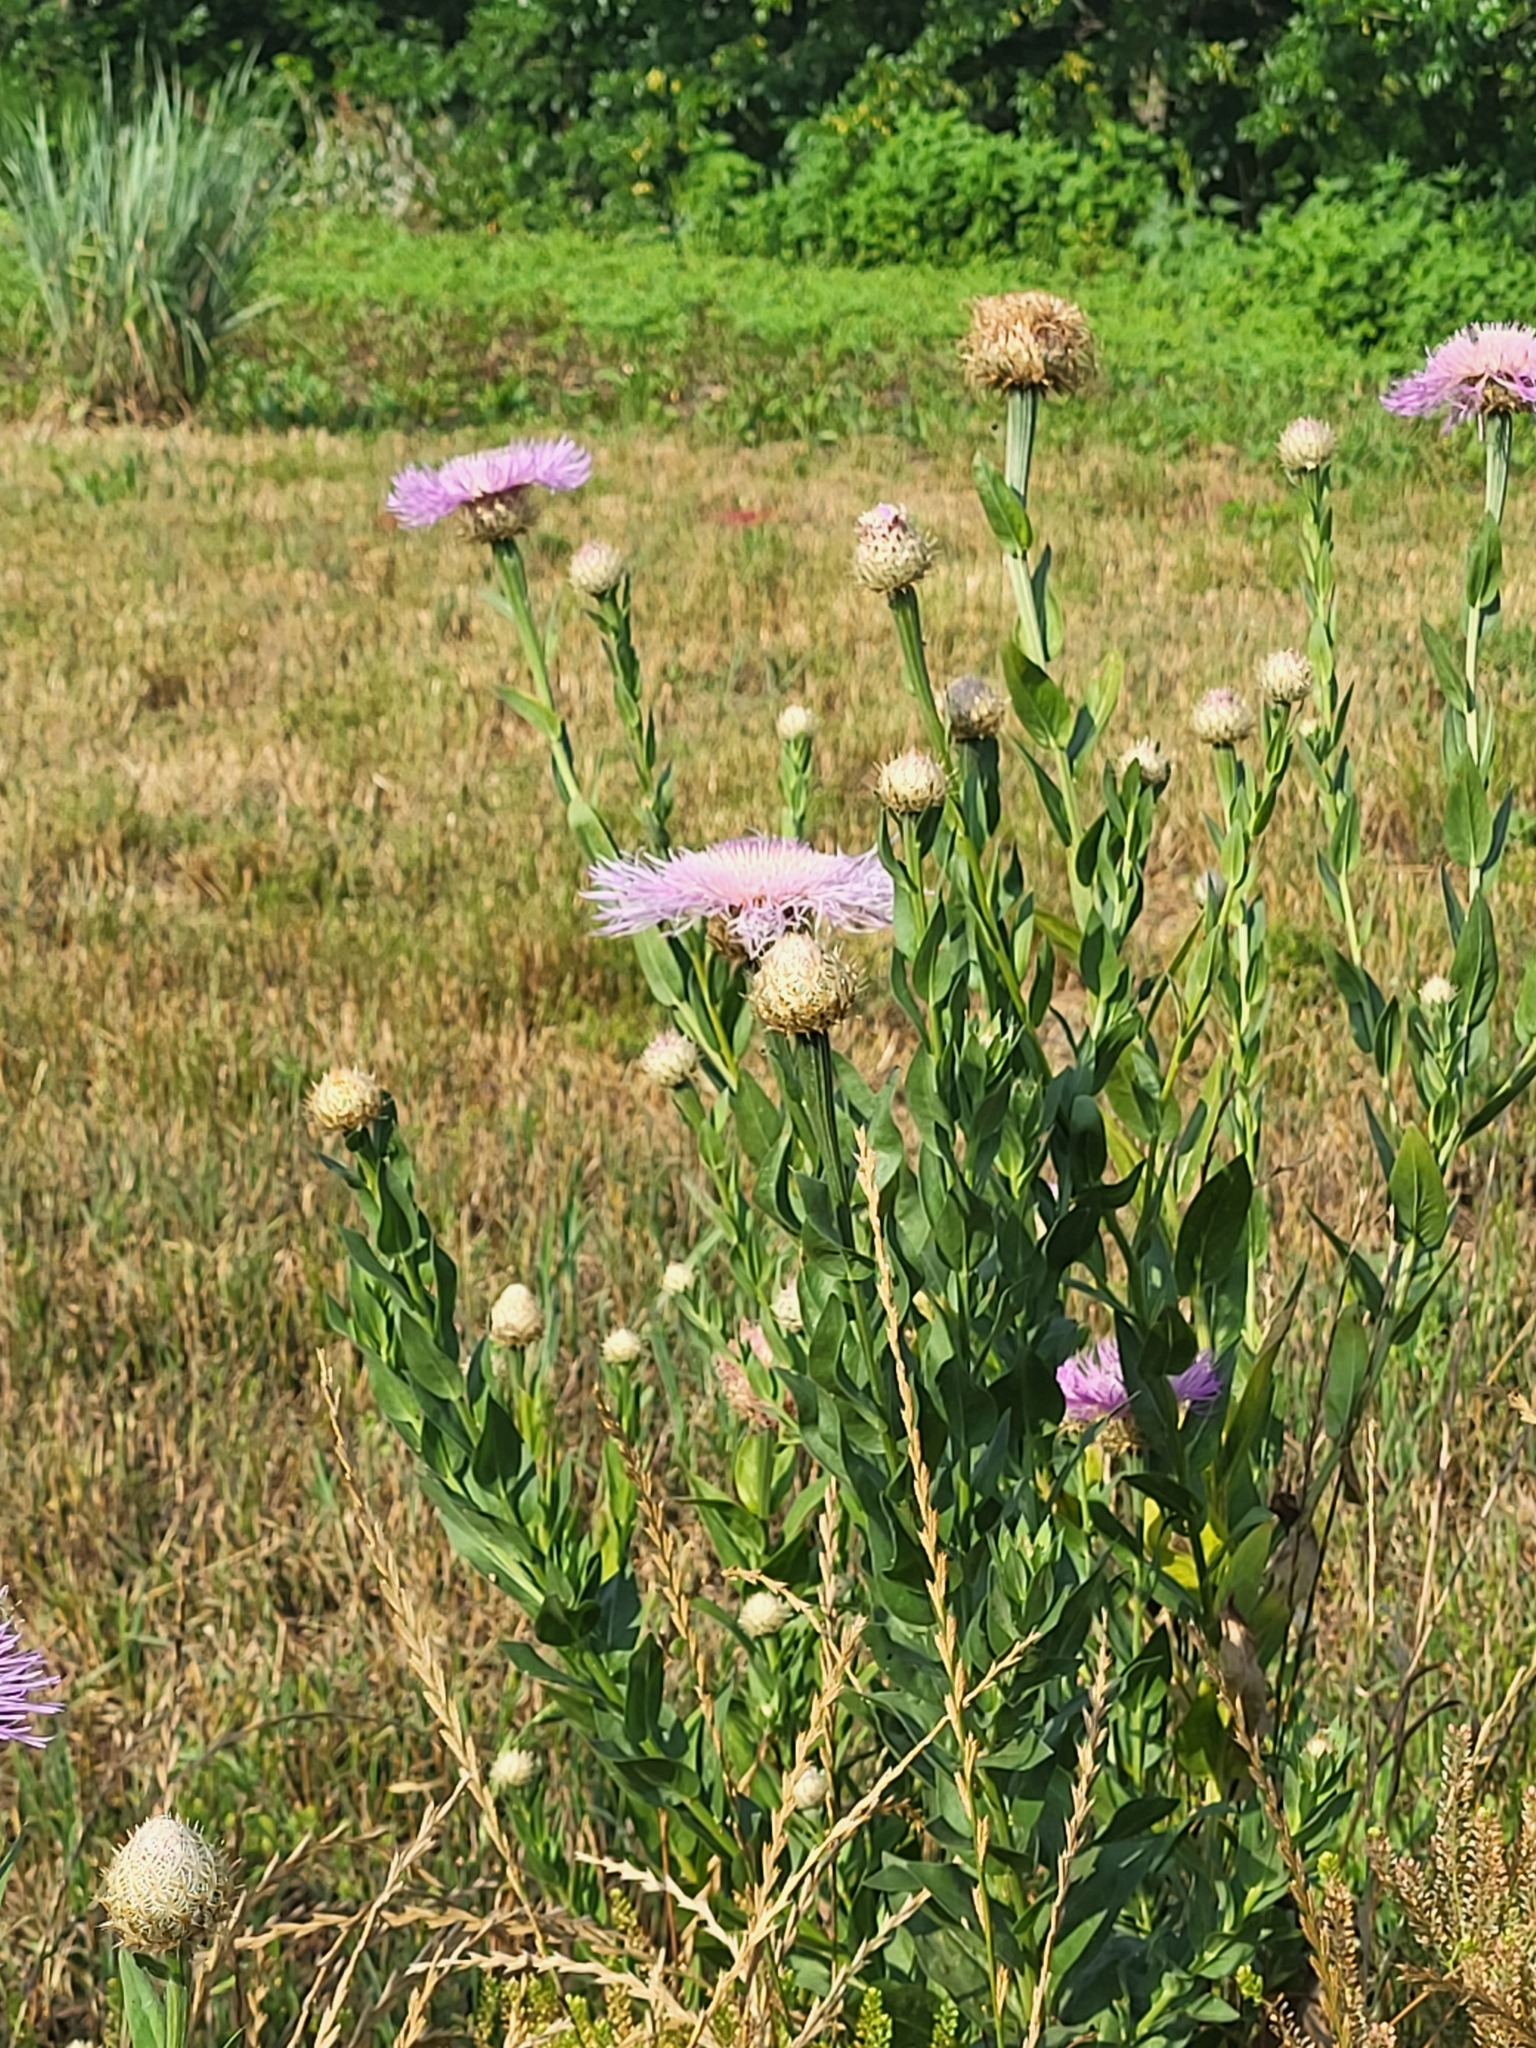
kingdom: Plantae
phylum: Tracheophyta
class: Magnoliopsida
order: Asterales
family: Asteraceae
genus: Plectocephalus
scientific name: Plectocephalus americanus
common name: American basket-flower
